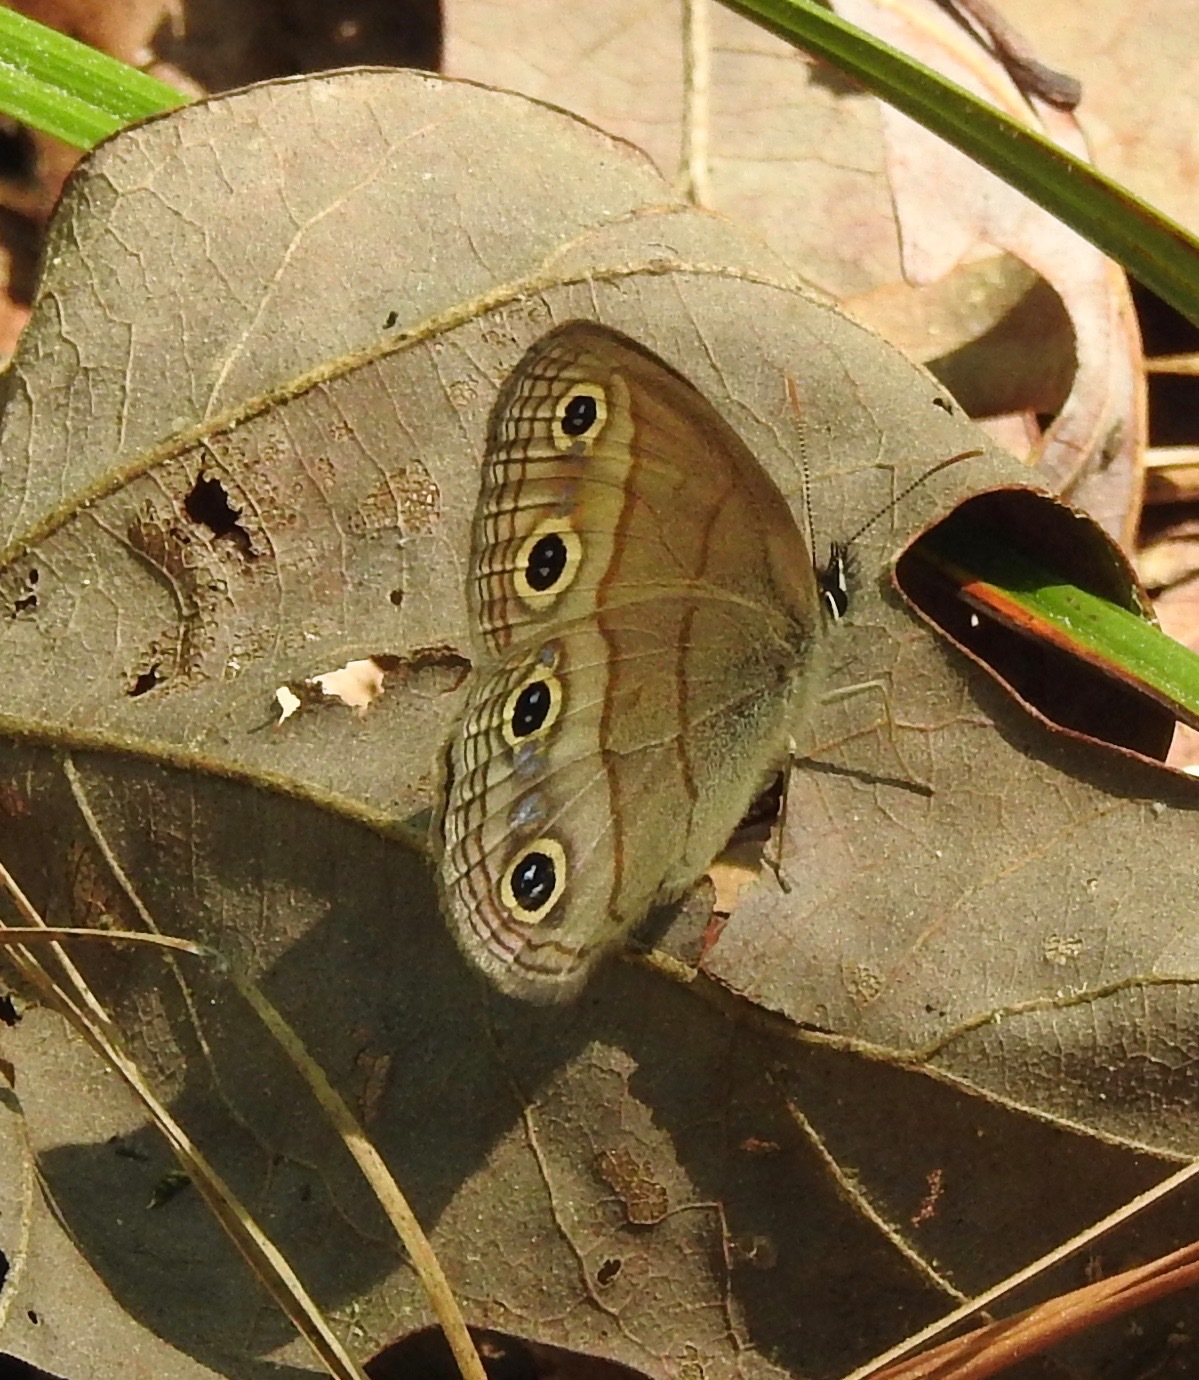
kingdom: Animalia
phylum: Arthropoda
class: Insecta
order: Lepidoptera
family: Nymphalidae
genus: Euptychia
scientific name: Euptychia cymela
